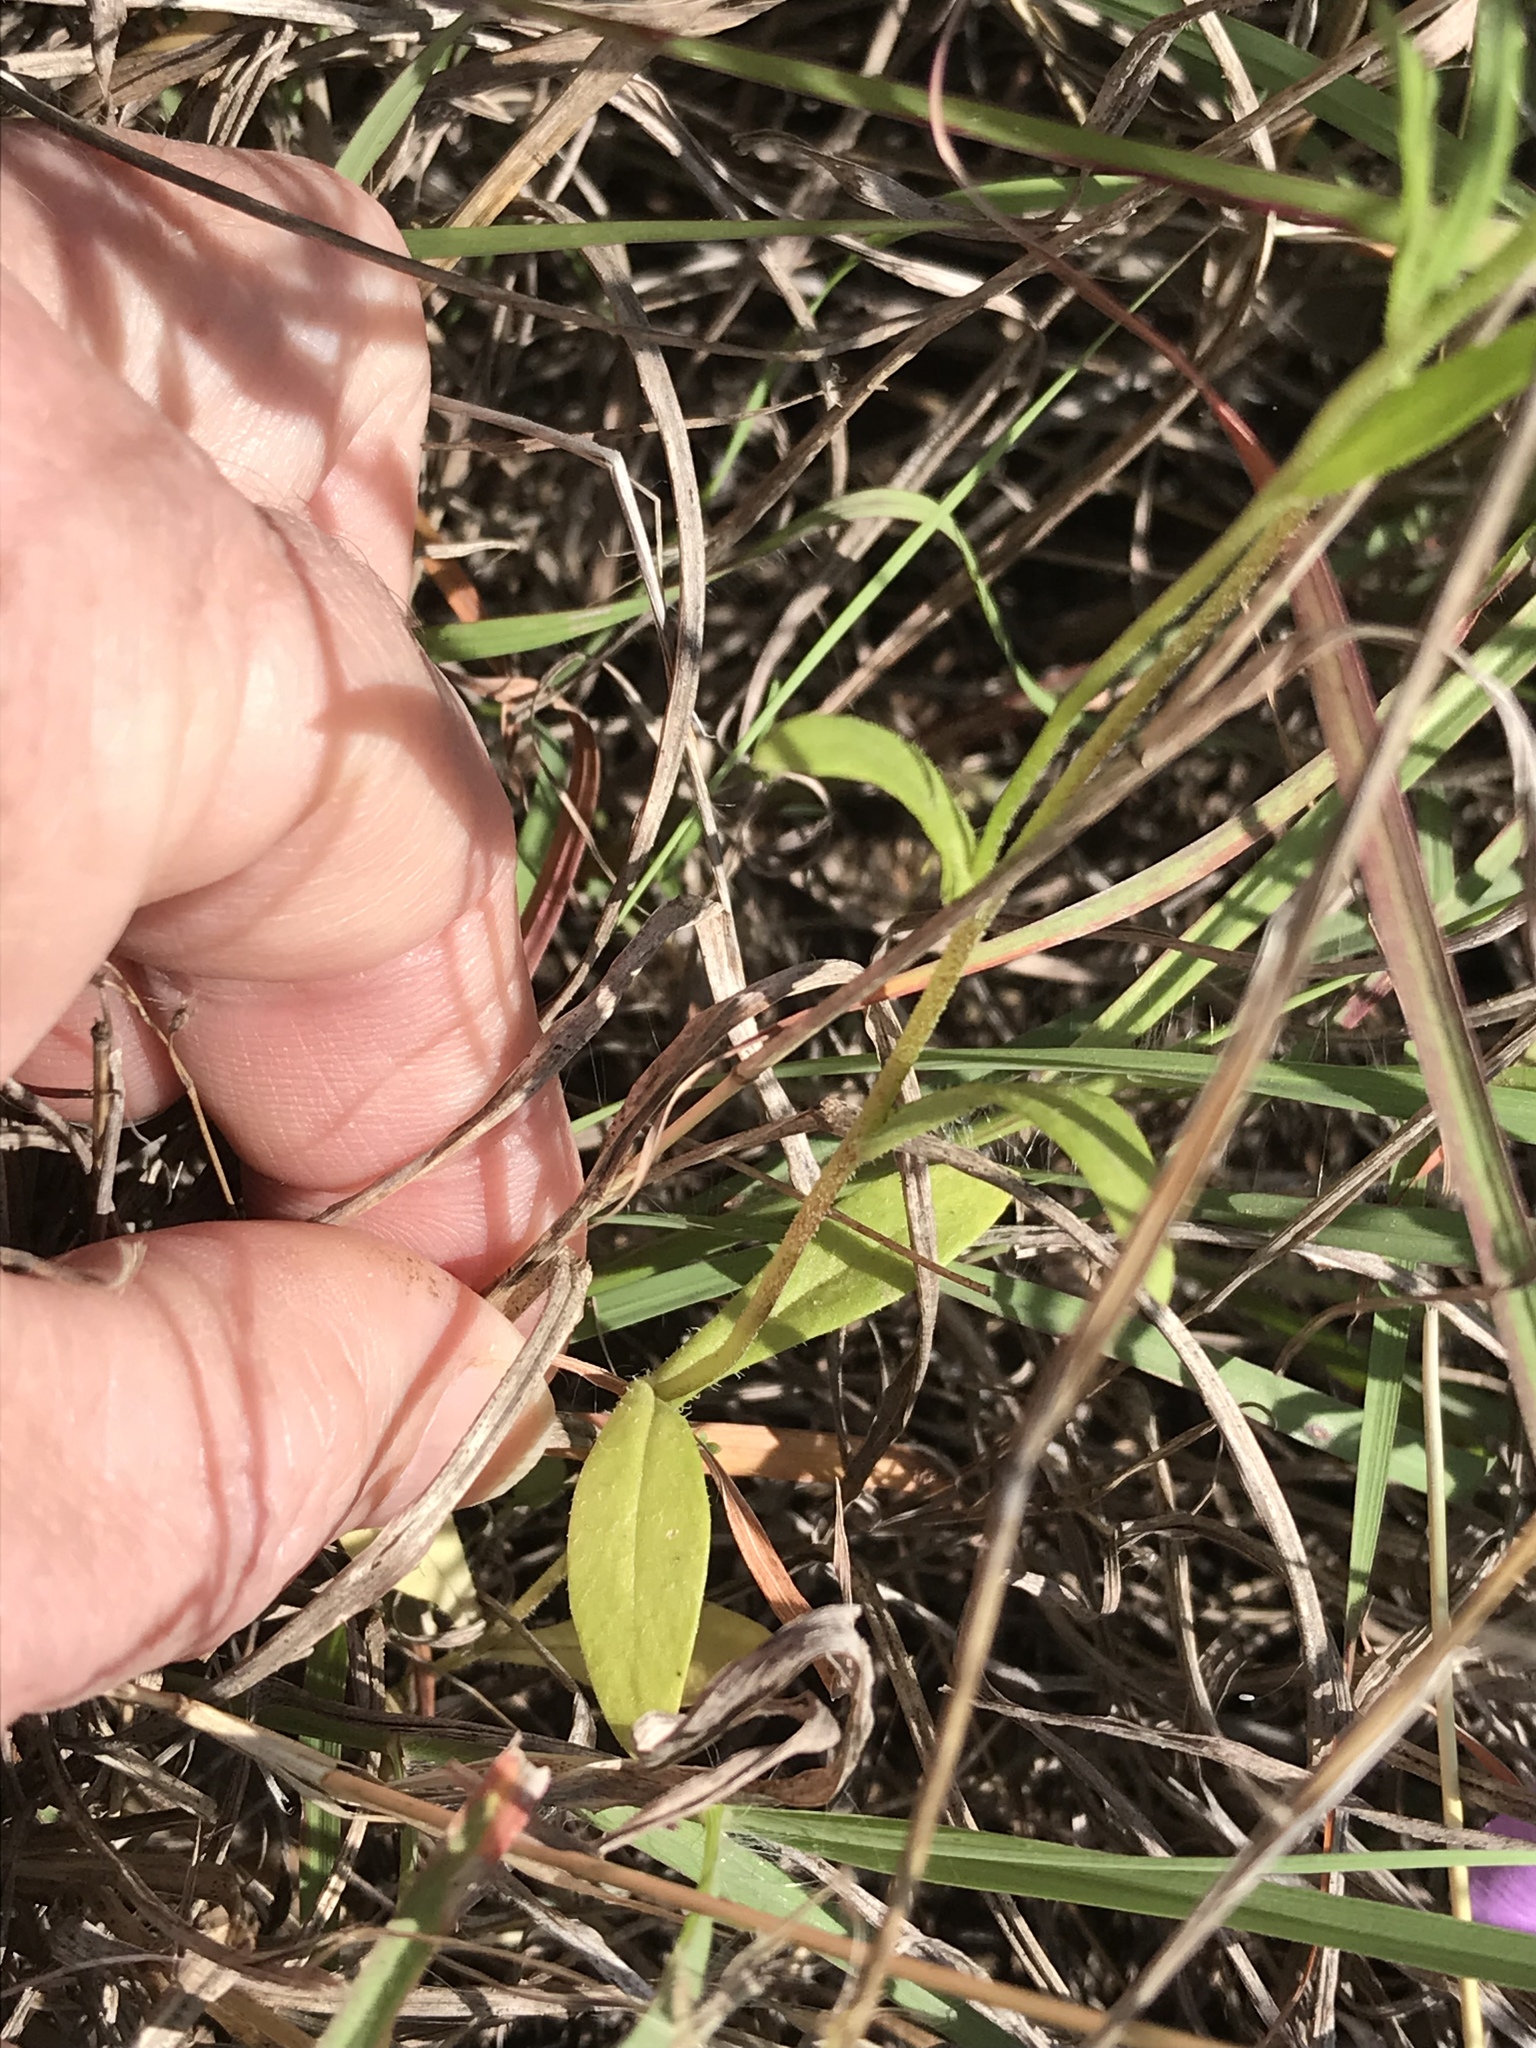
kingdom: Plantae
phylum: Tracheophyta
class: Magnoliopsida
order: Ericales
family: Polemoniaceae
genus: Phlox
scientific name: Phlox roemeriana
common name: Roemer's phlox
